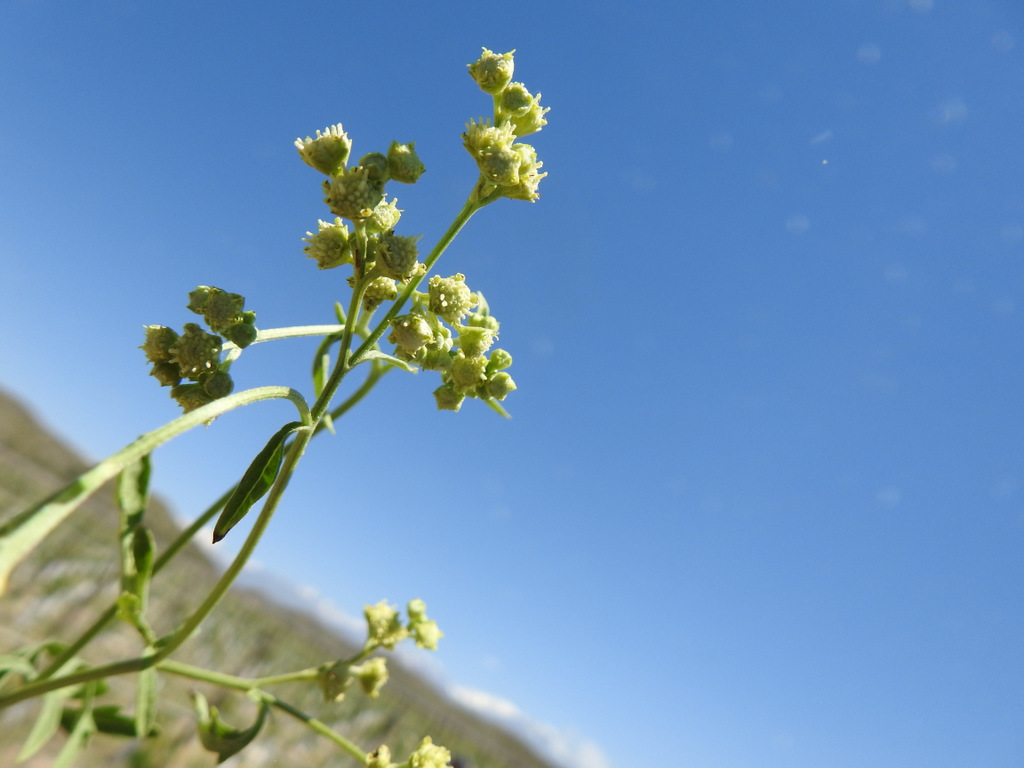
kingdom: Plantae
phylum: Tracheophyta
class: Magnoliopsida
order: Asterales
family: Asteraceae
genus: Parthenium
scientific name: Parthenium hysterophorus
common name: Santa maria feverfew
